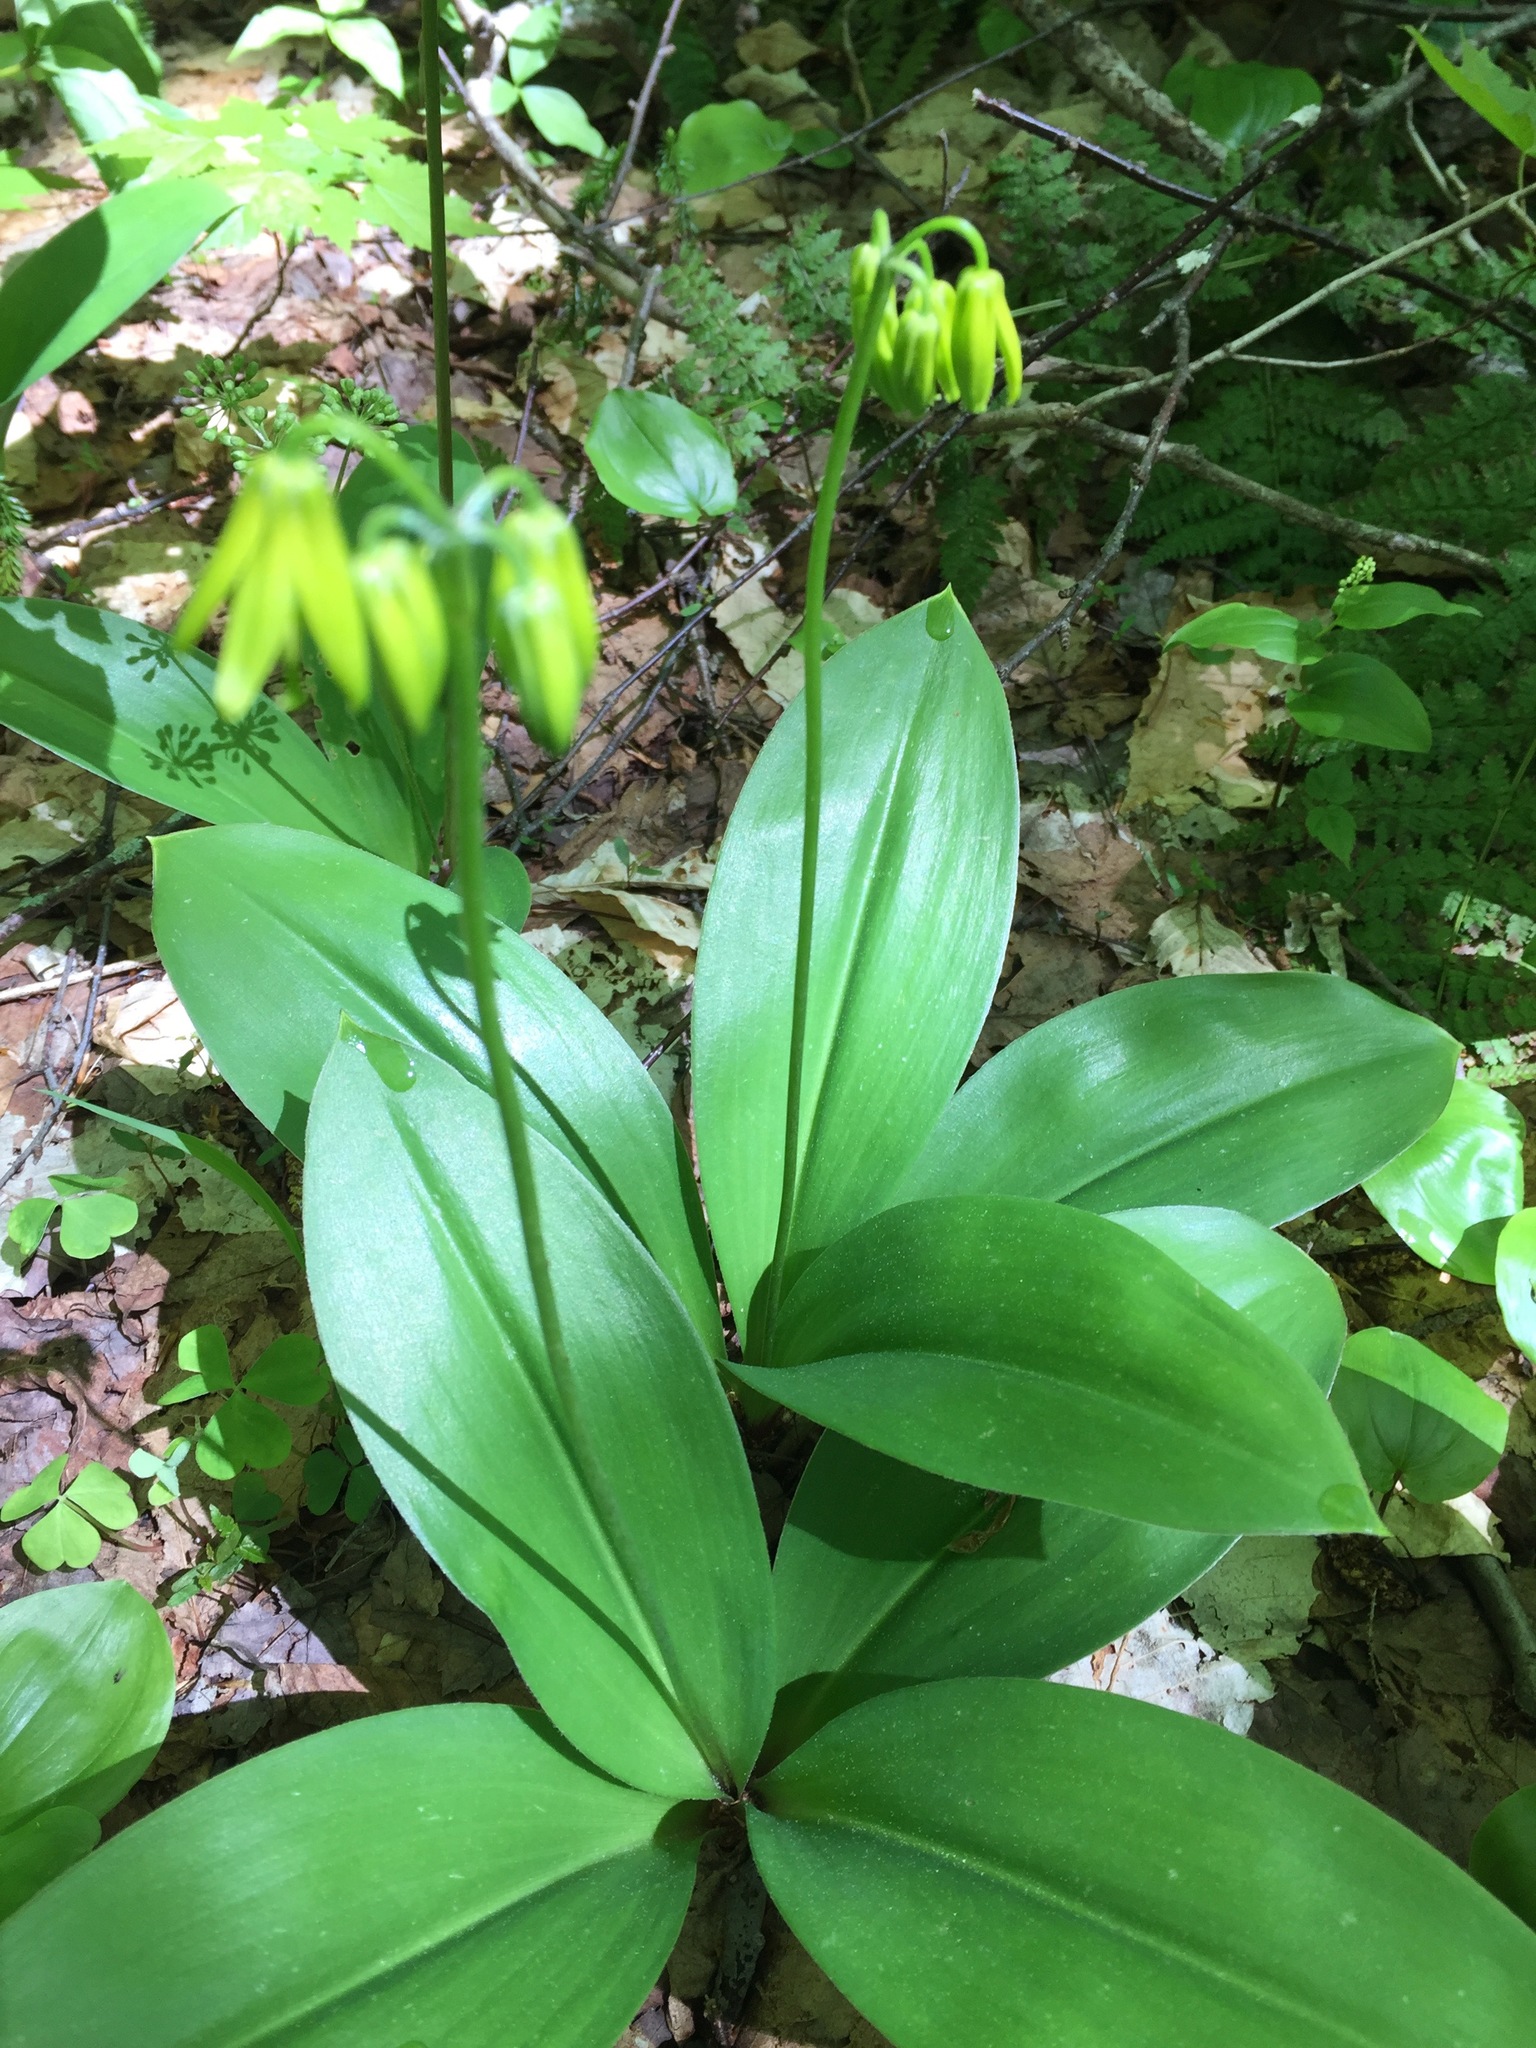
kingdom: Plantae
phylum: Tracheophyta
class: Liliopsida
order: Liliales
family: Liliaceae
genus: Clintonia
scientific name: Clintonia borealis
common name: Yellow clintonia
